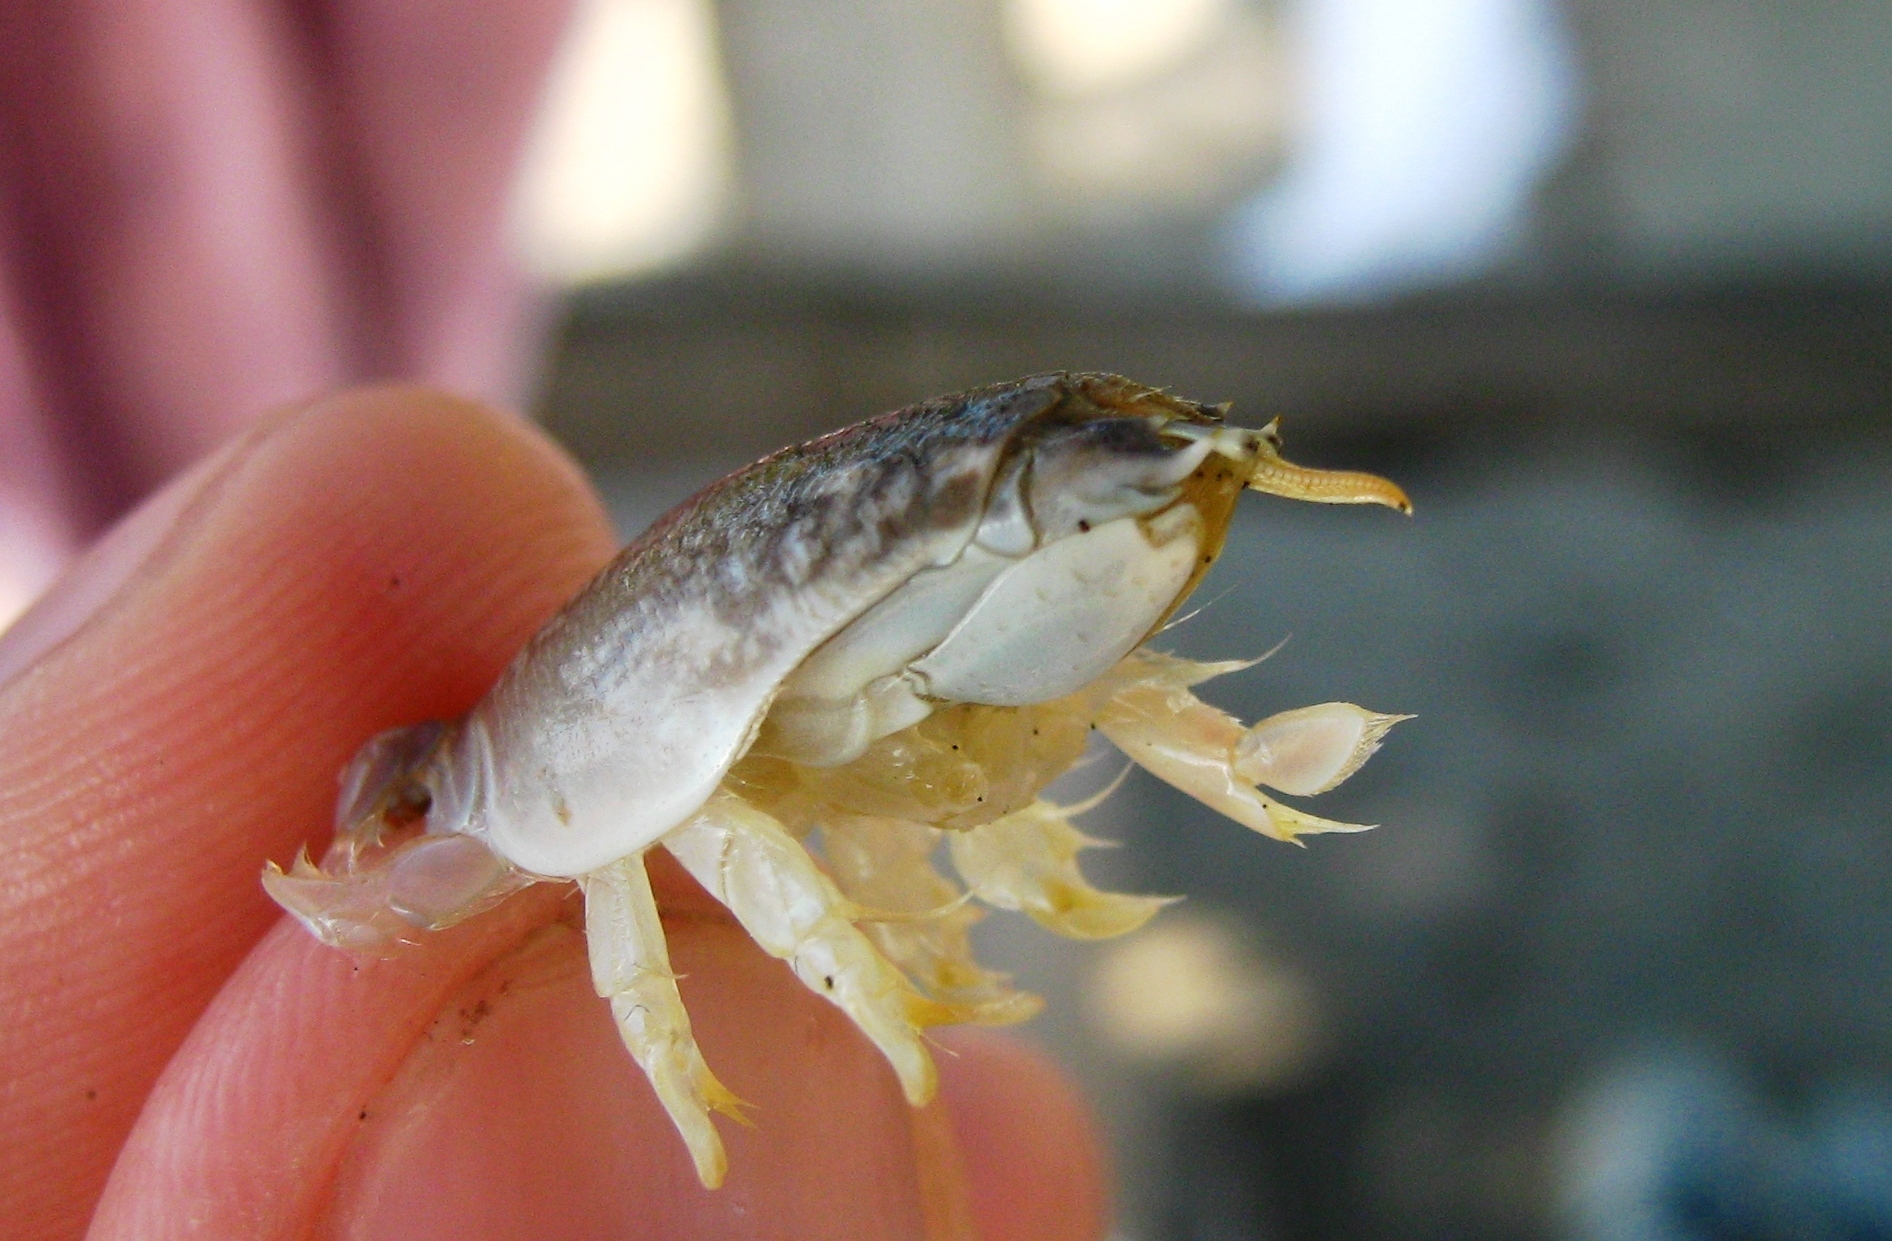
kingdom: Animalia
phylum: Arthropoda
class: Malacostraca
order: Decapoda
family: Hippidae
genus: Emerita
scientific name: Emerita rathbunae
